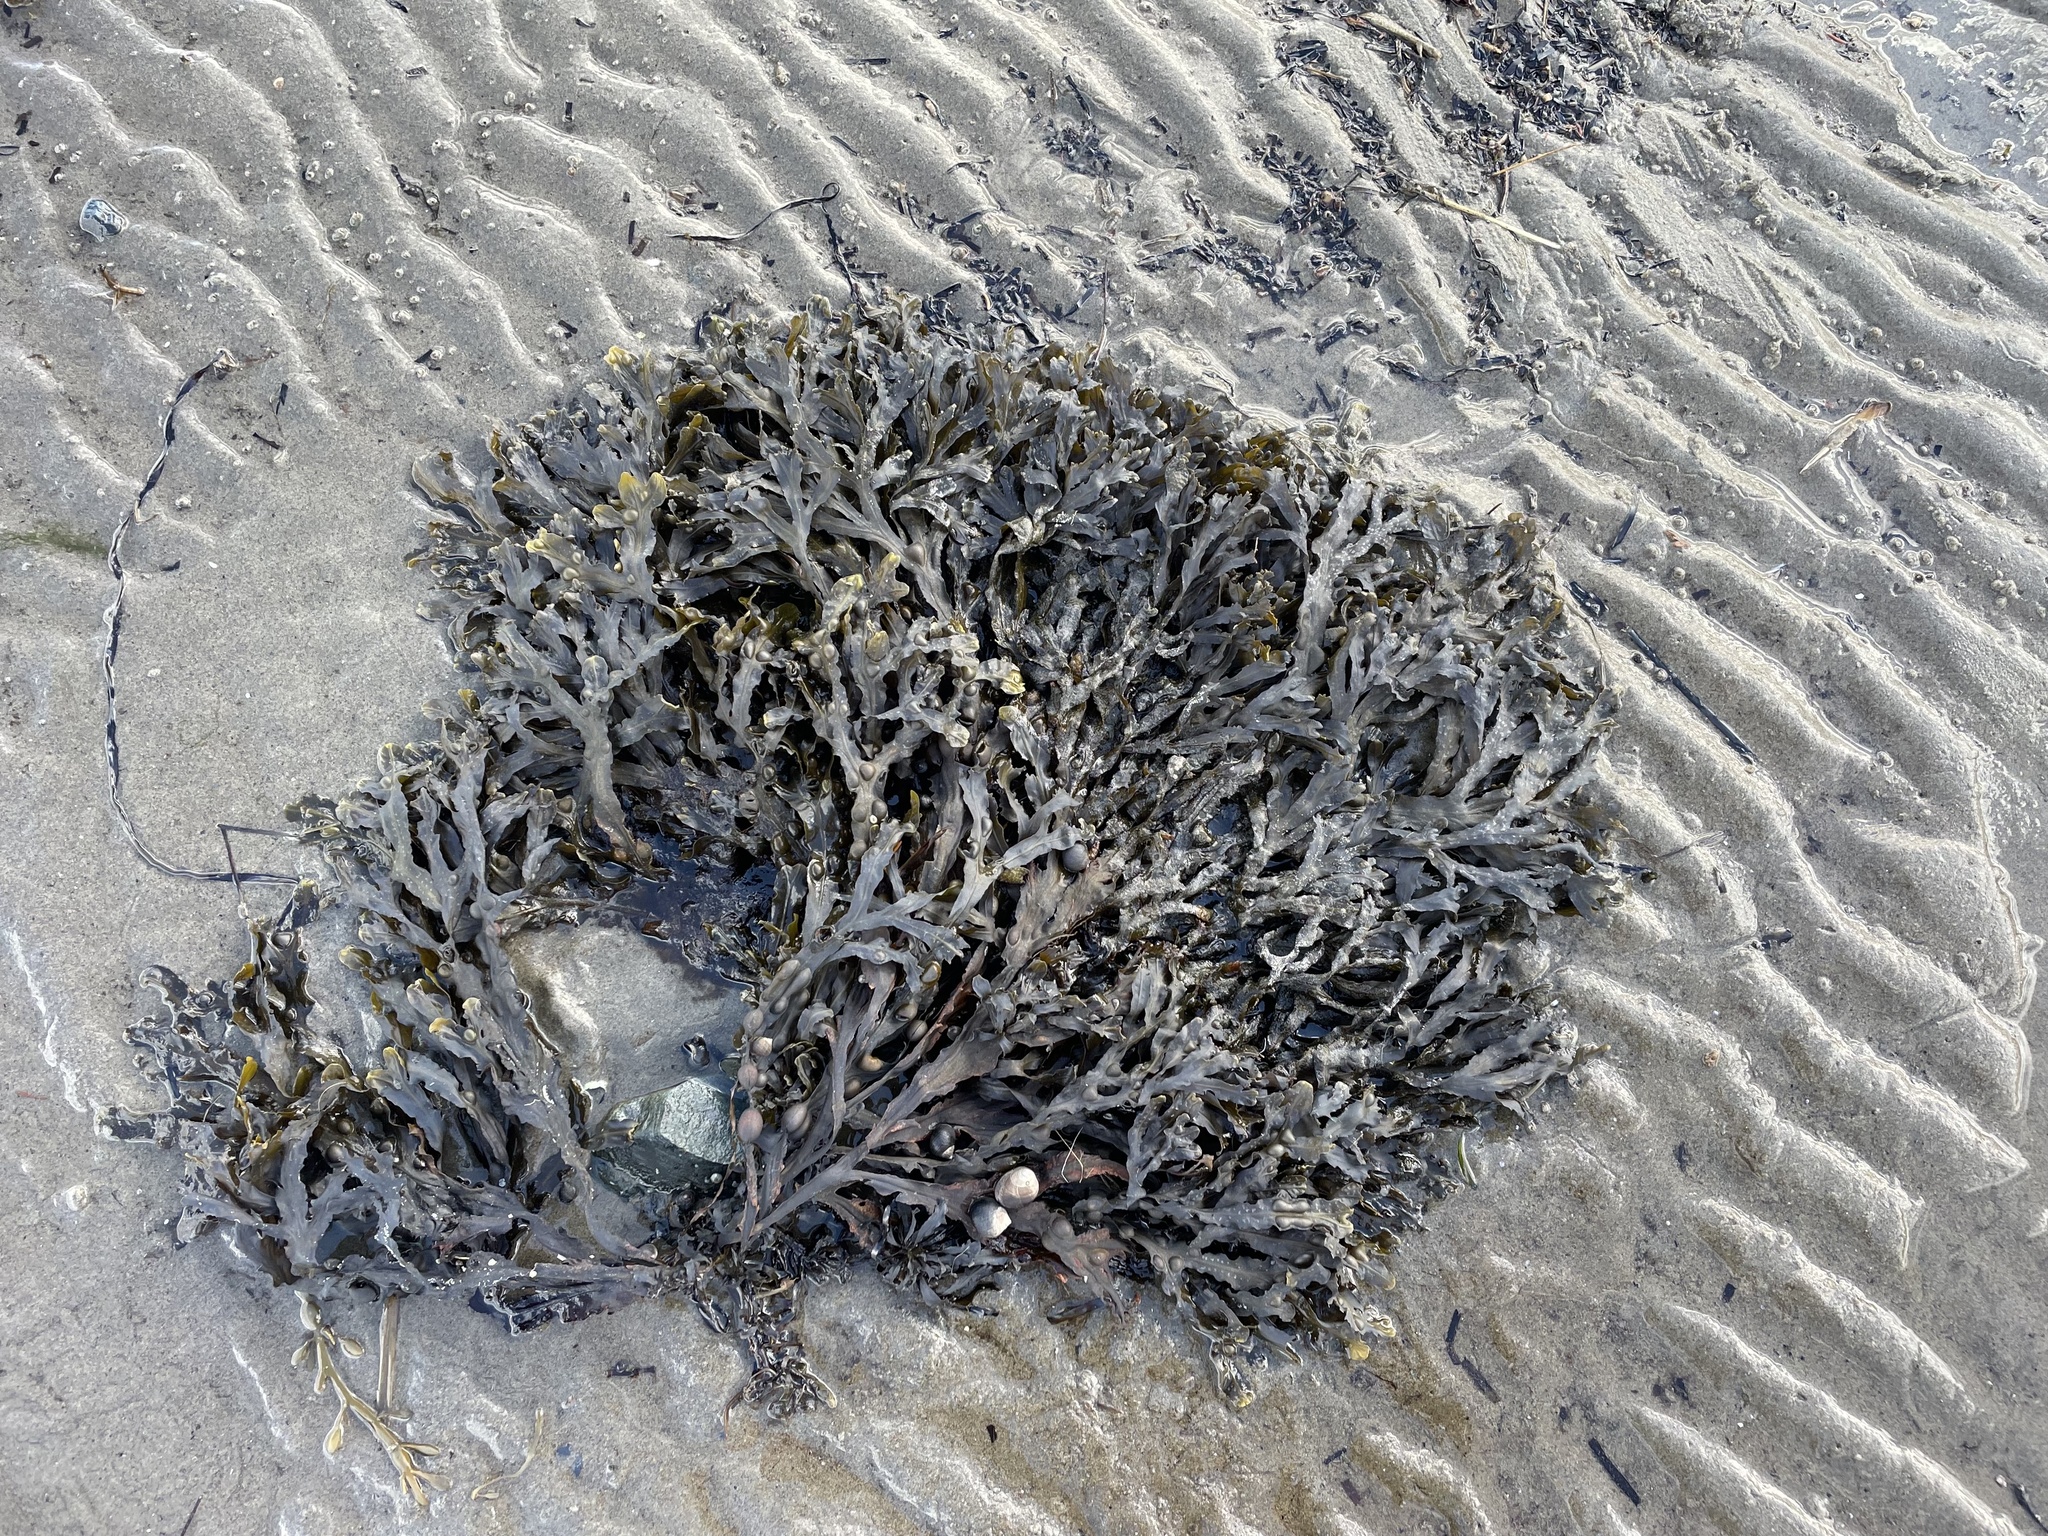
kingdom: Chromista
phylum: Ochrophyta
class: Phaeophyceae
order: Fucales
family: Fucaceae
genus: Fucus
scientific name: Fucus vesiculosus
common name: Bladder wrack
